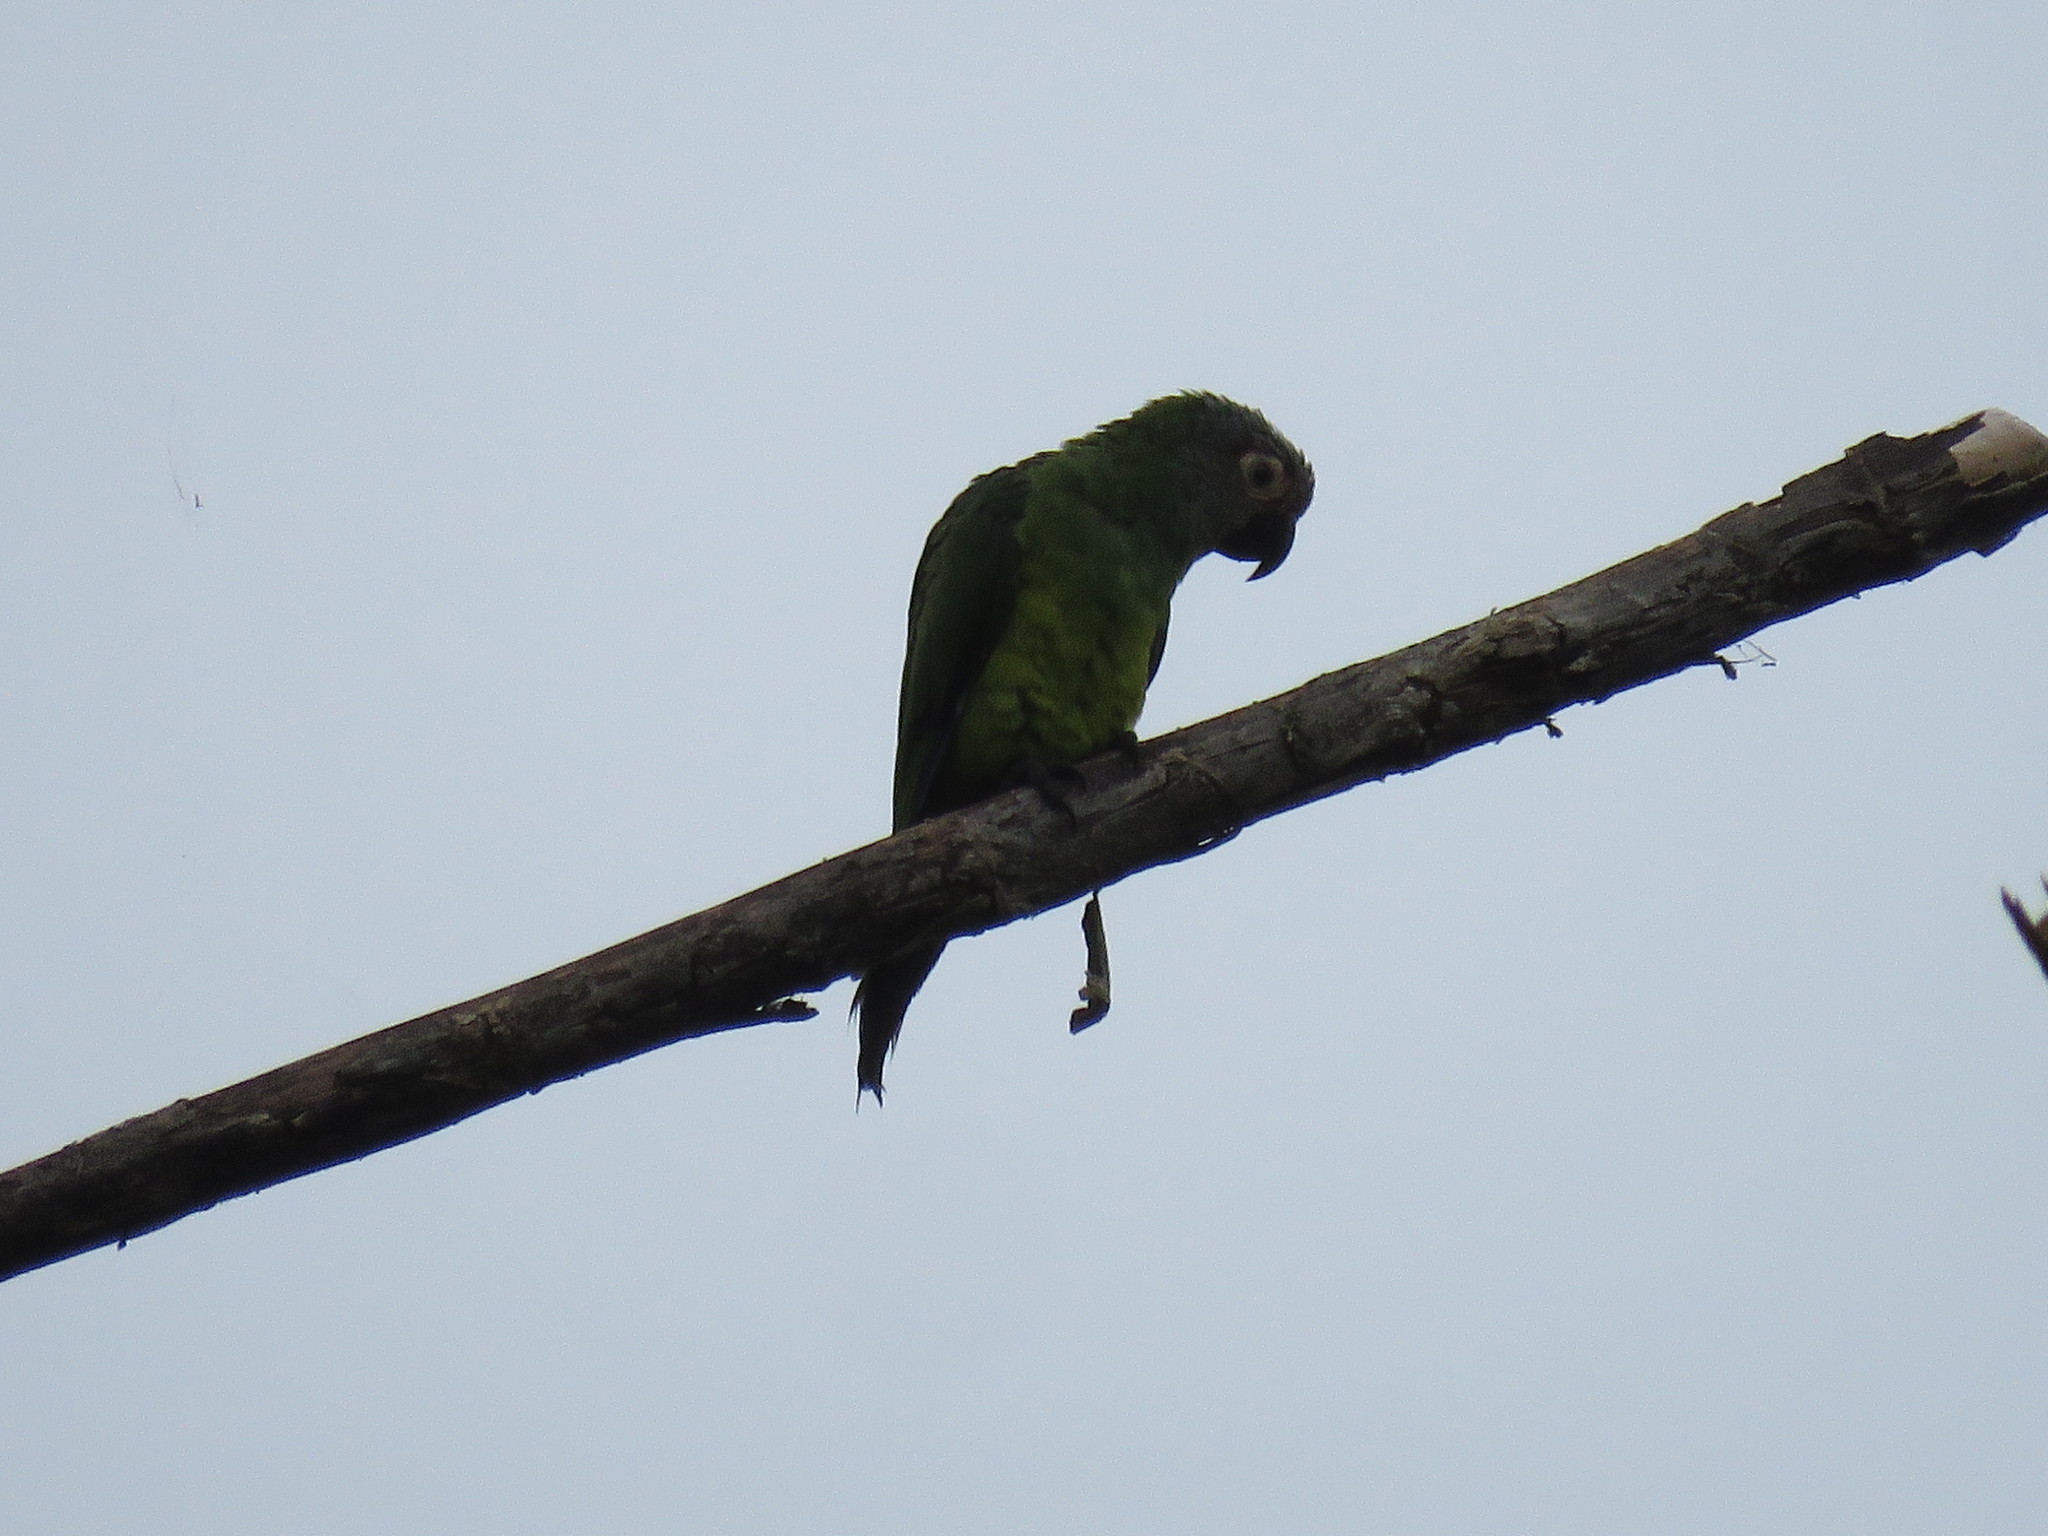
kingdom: Animalia
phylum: Chordata
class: Aves
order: Psittaciformes
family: Psittacidae
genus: Aratinga
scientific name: Aratinga weddellii
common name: Dusky-headed parakeet
